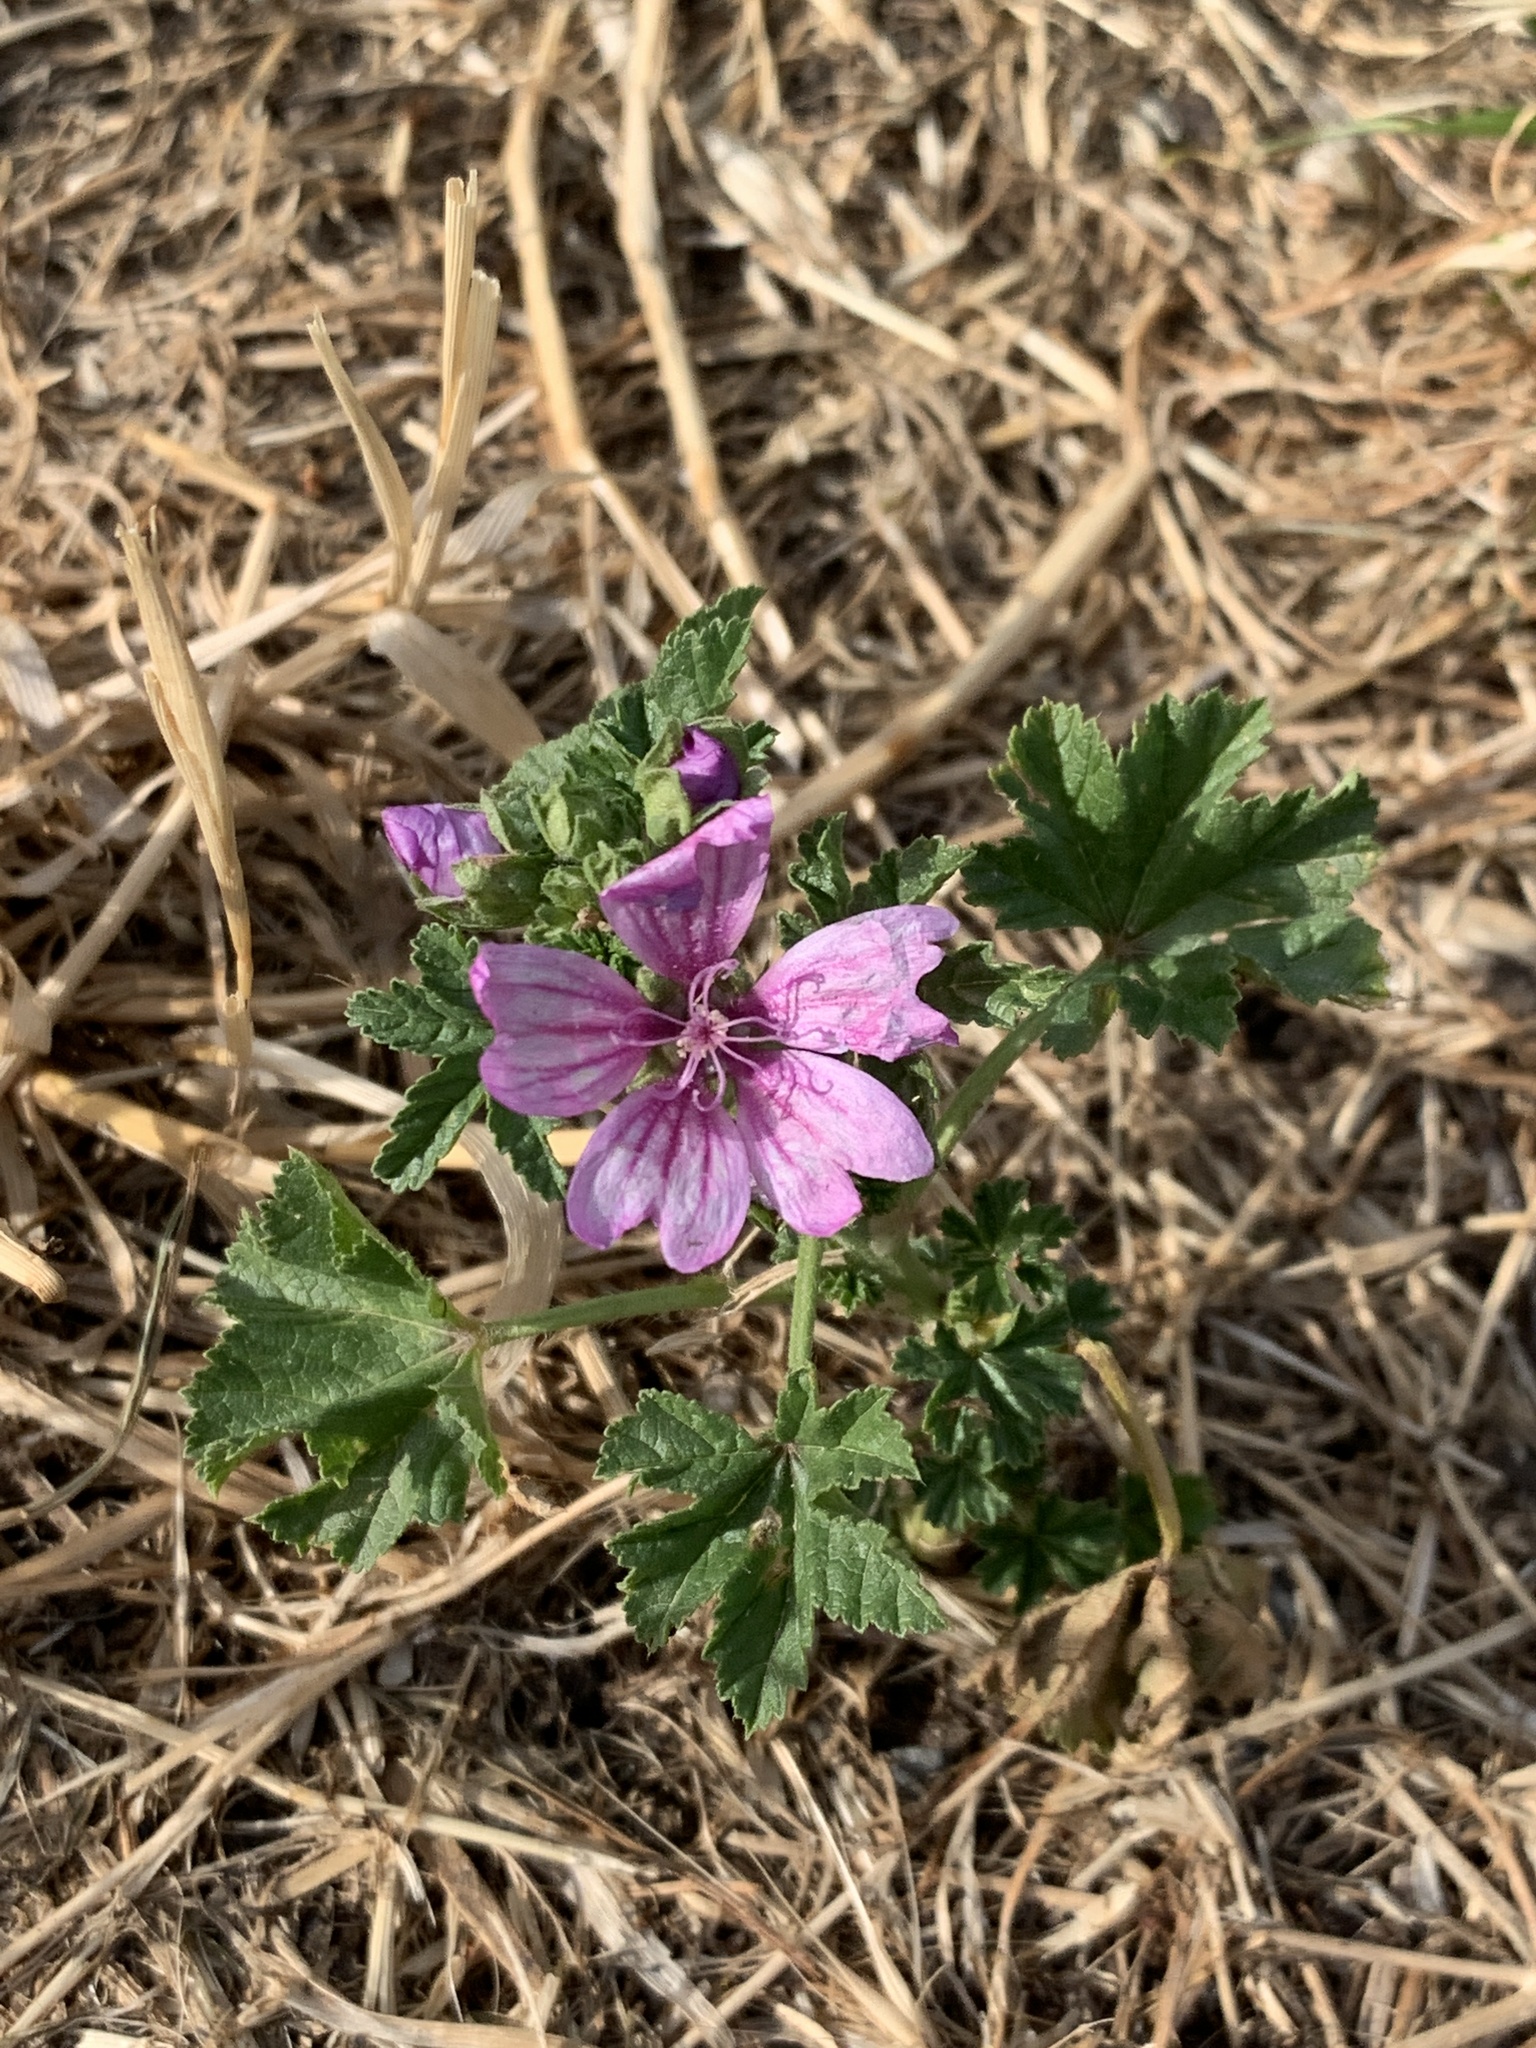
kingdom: Plantae
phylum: Tracheophyta
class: Magnoliopsida
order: Malvales
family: Malvaceae
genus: Malva
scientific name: Malva sylvestris
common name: Common mallow
